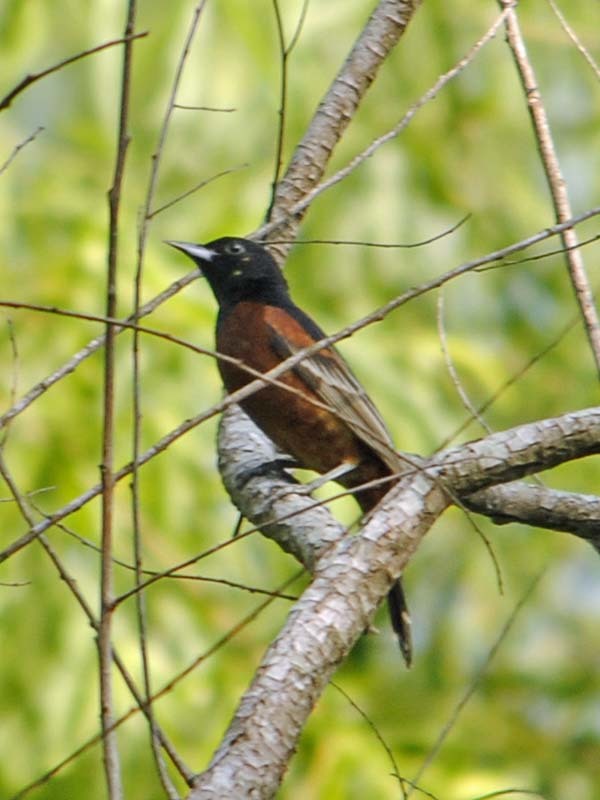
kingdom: Animalia
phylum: Chordata
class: Aves
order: Passeriformes
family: Icteridae
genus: Icterus
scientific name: Icterus spurius
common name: Orchard oriole
